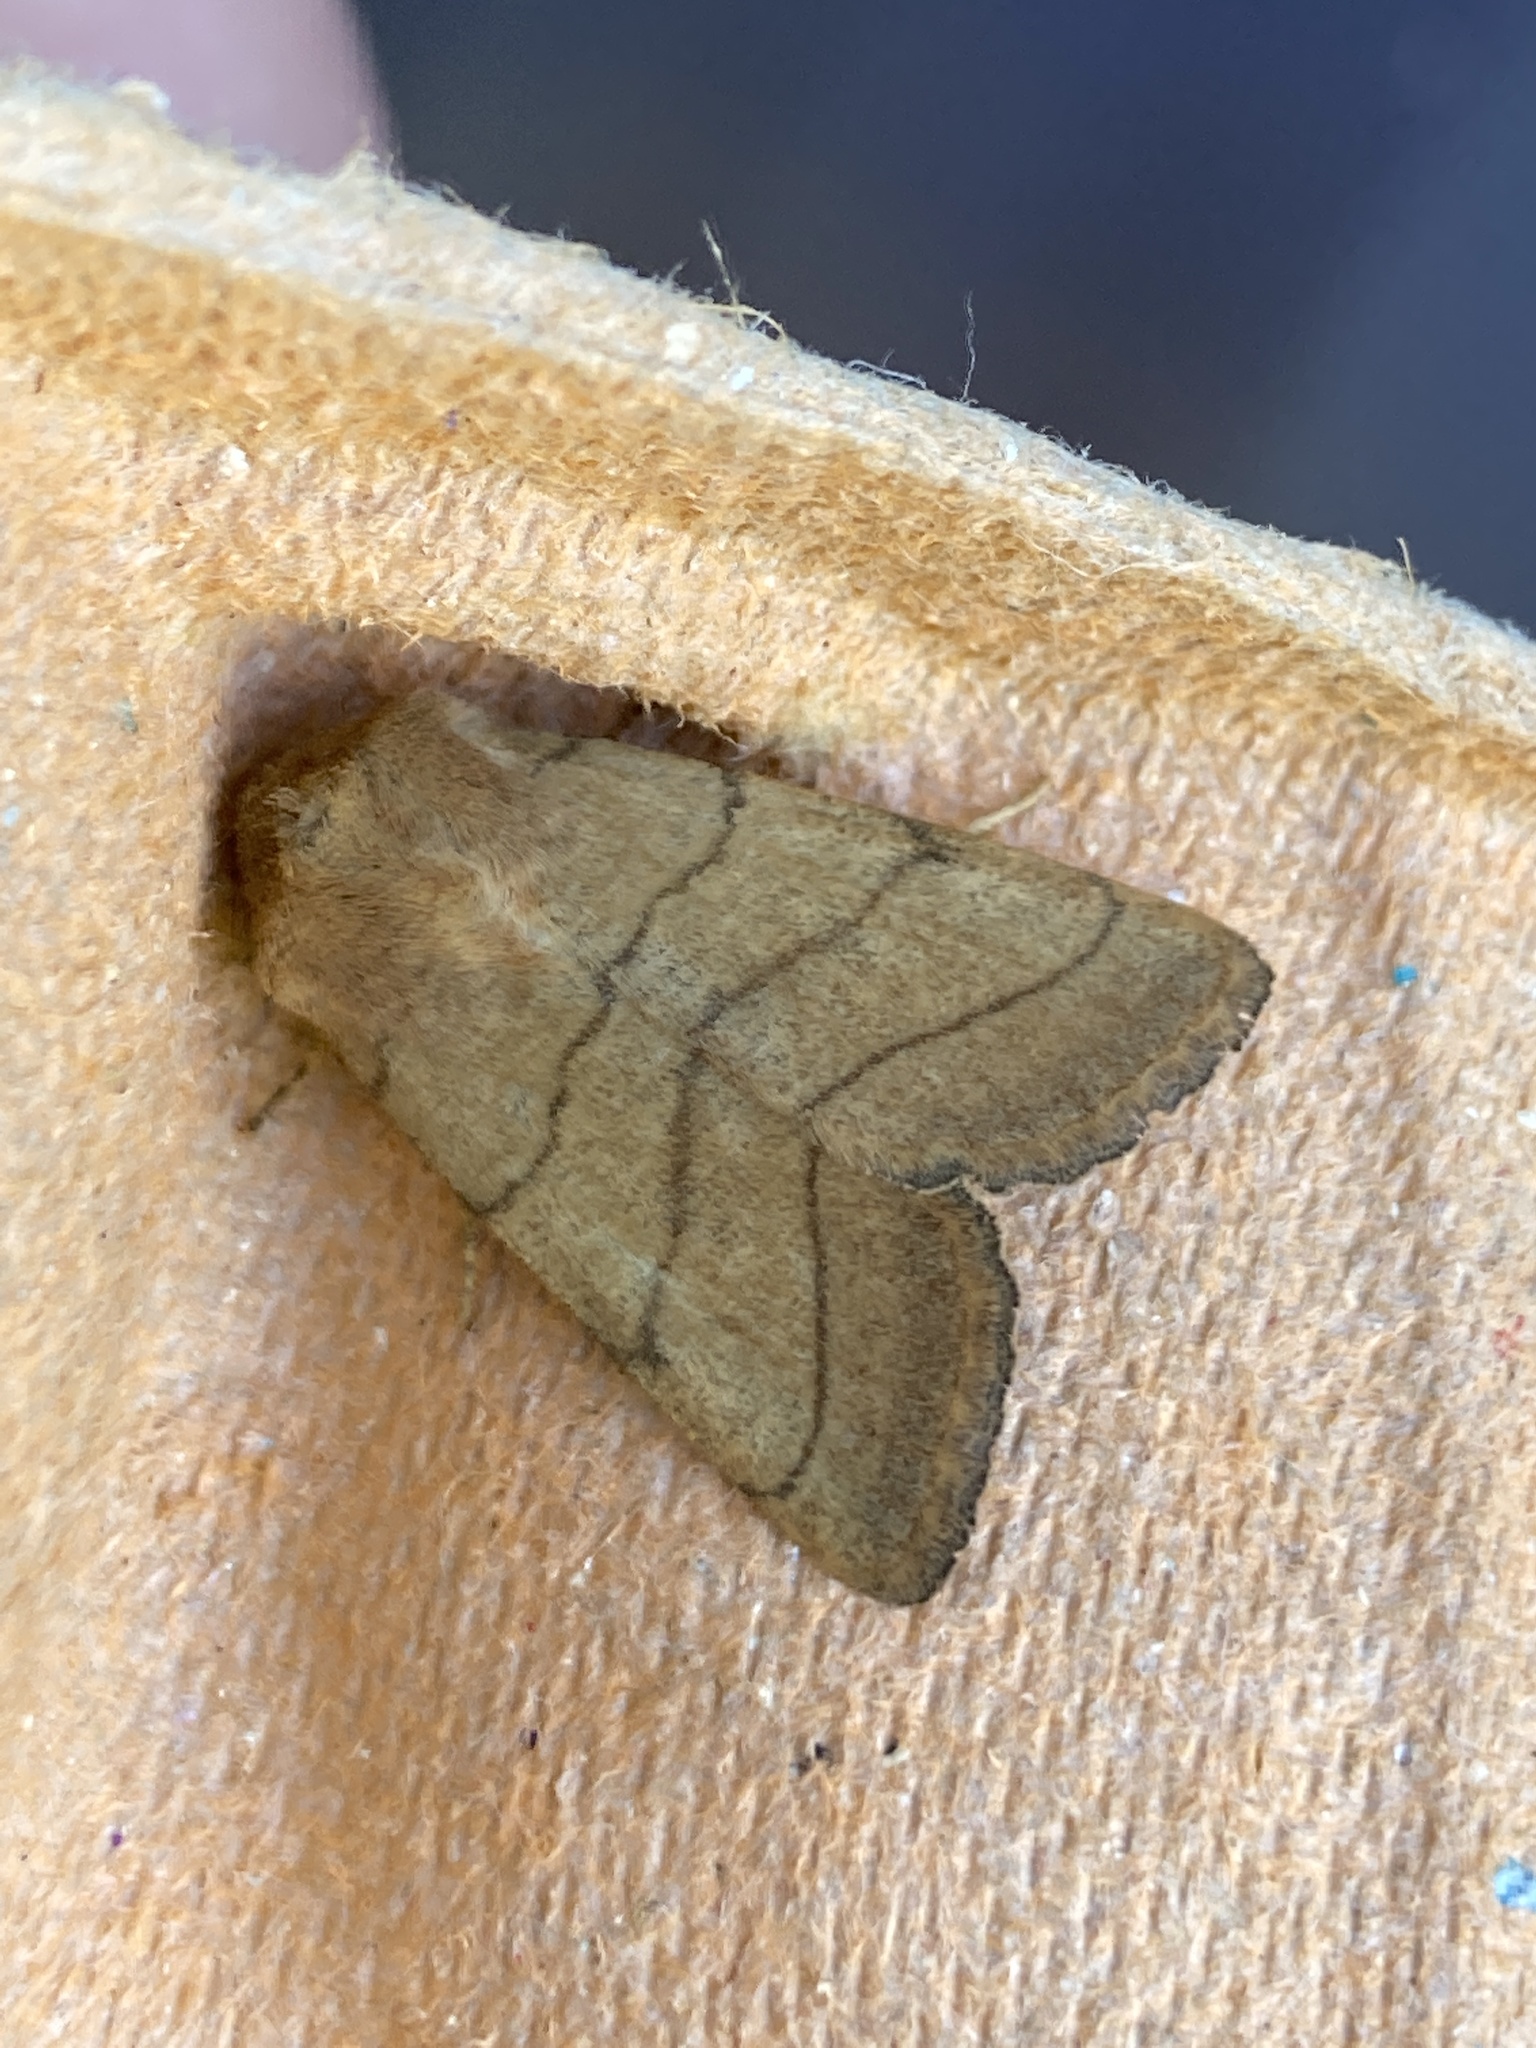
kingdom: Animalia
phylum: Arthropoda
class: Insecta
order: Lepidoptera
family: Noctuidae
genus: Charanyca
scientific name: Charanyca trigrammica
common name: Treble lines
